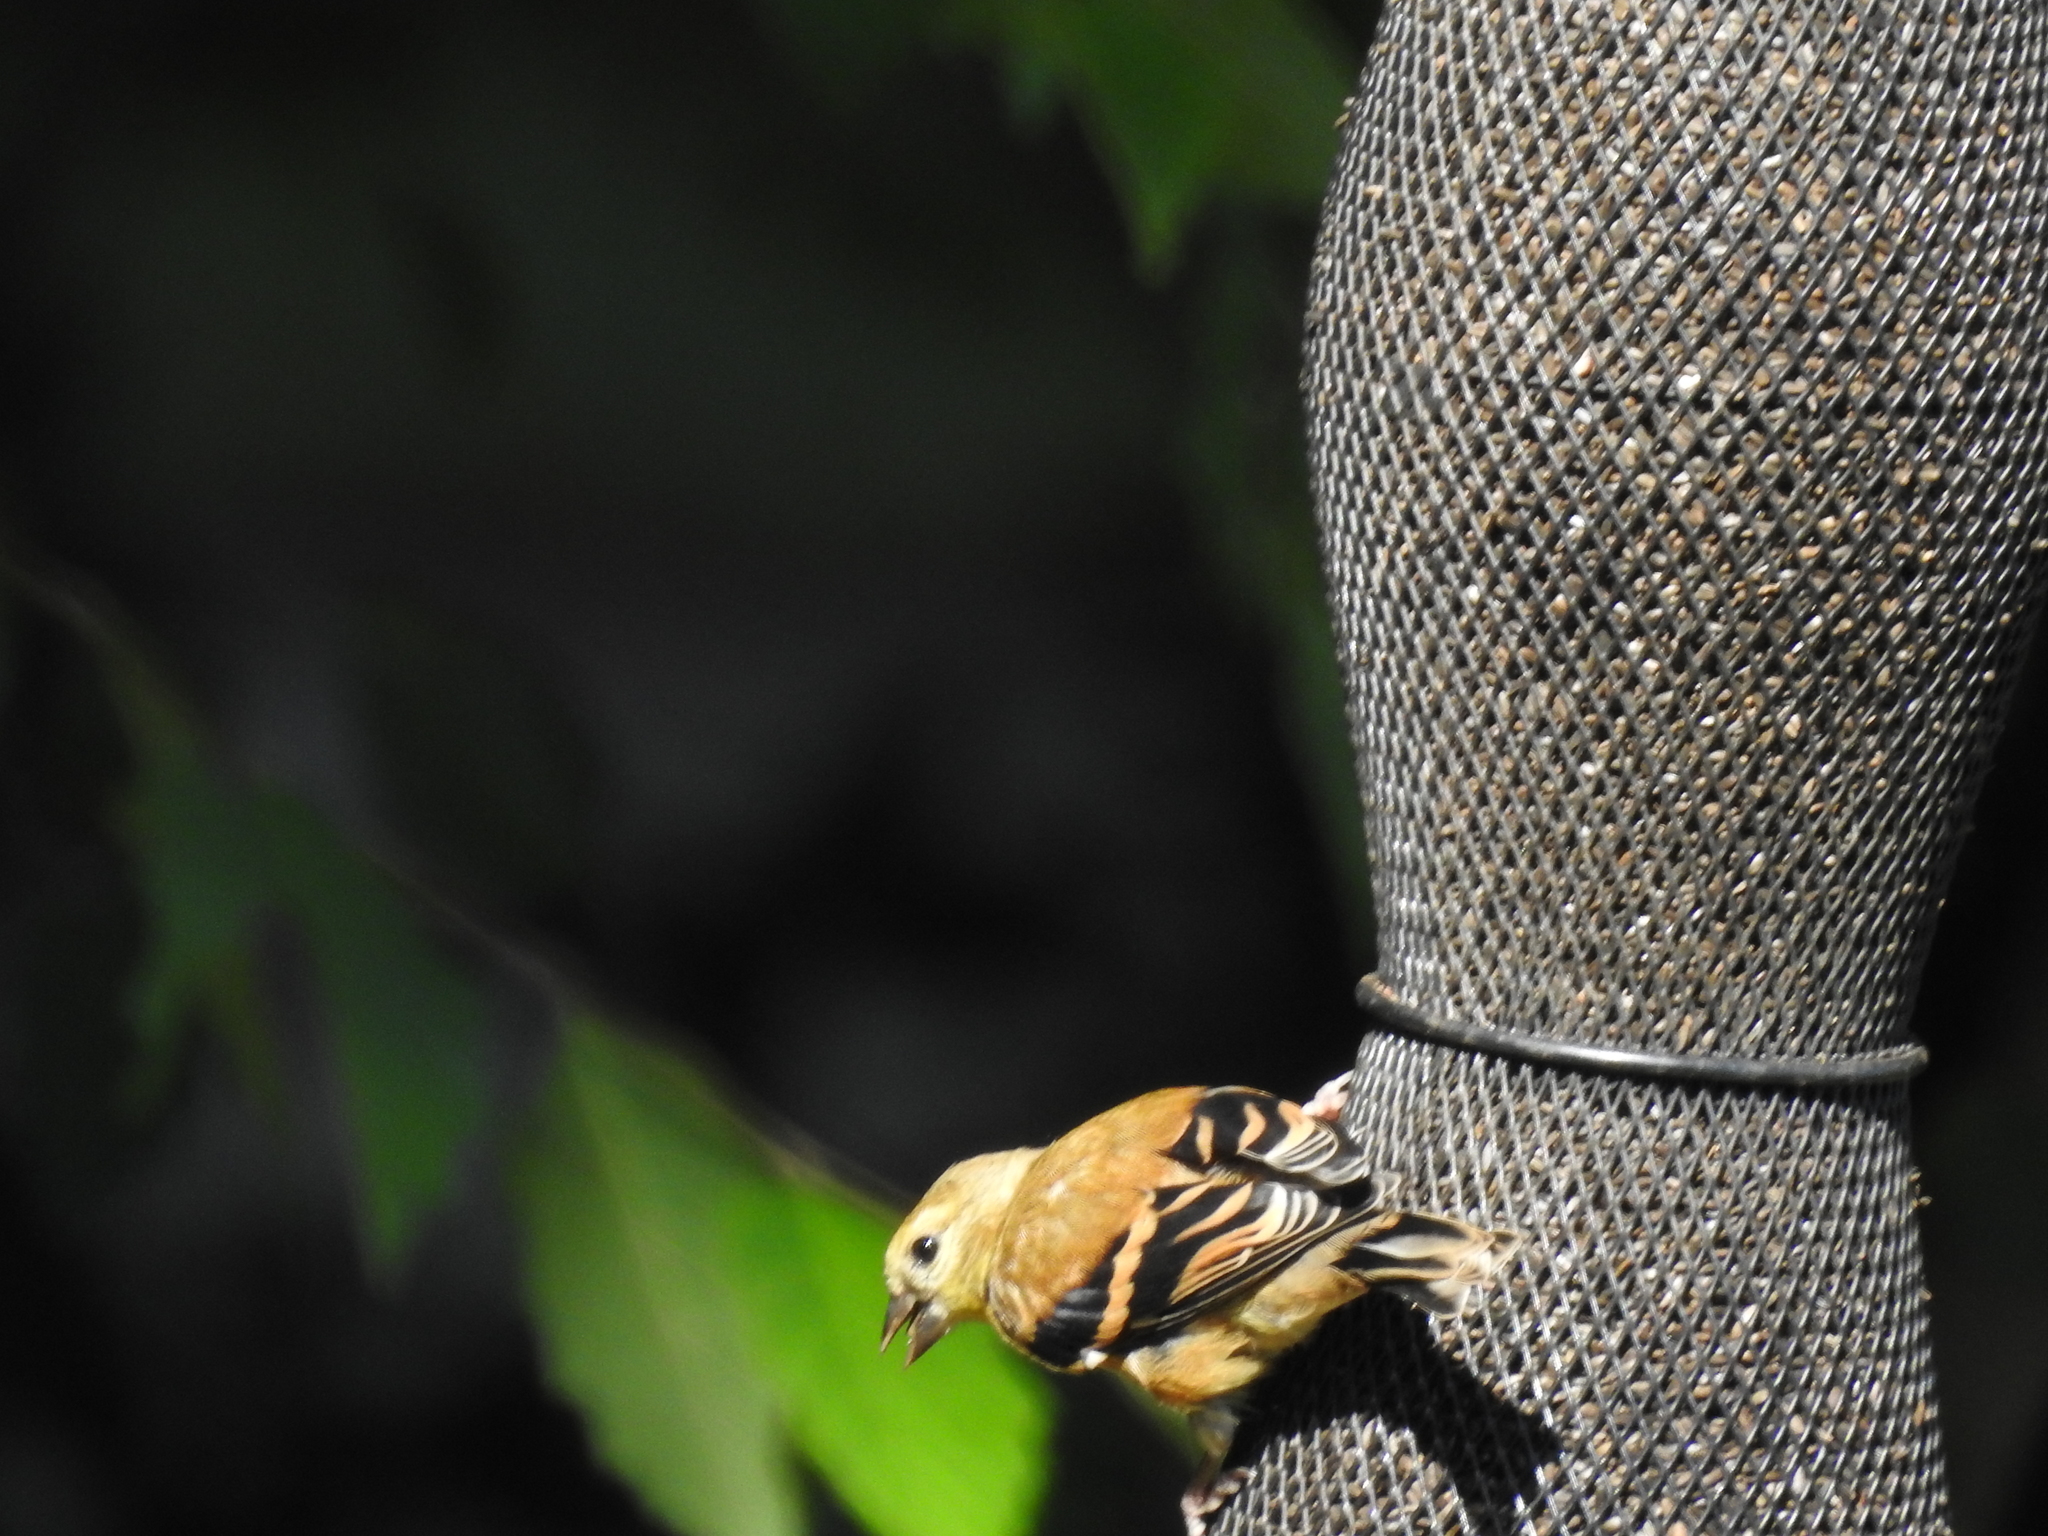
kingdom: Animalia
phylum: Chordata
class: Aves
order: Passeriformes
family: Fringillidae
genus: Spinus
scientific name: Spinus tristis
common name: American goldfinch
